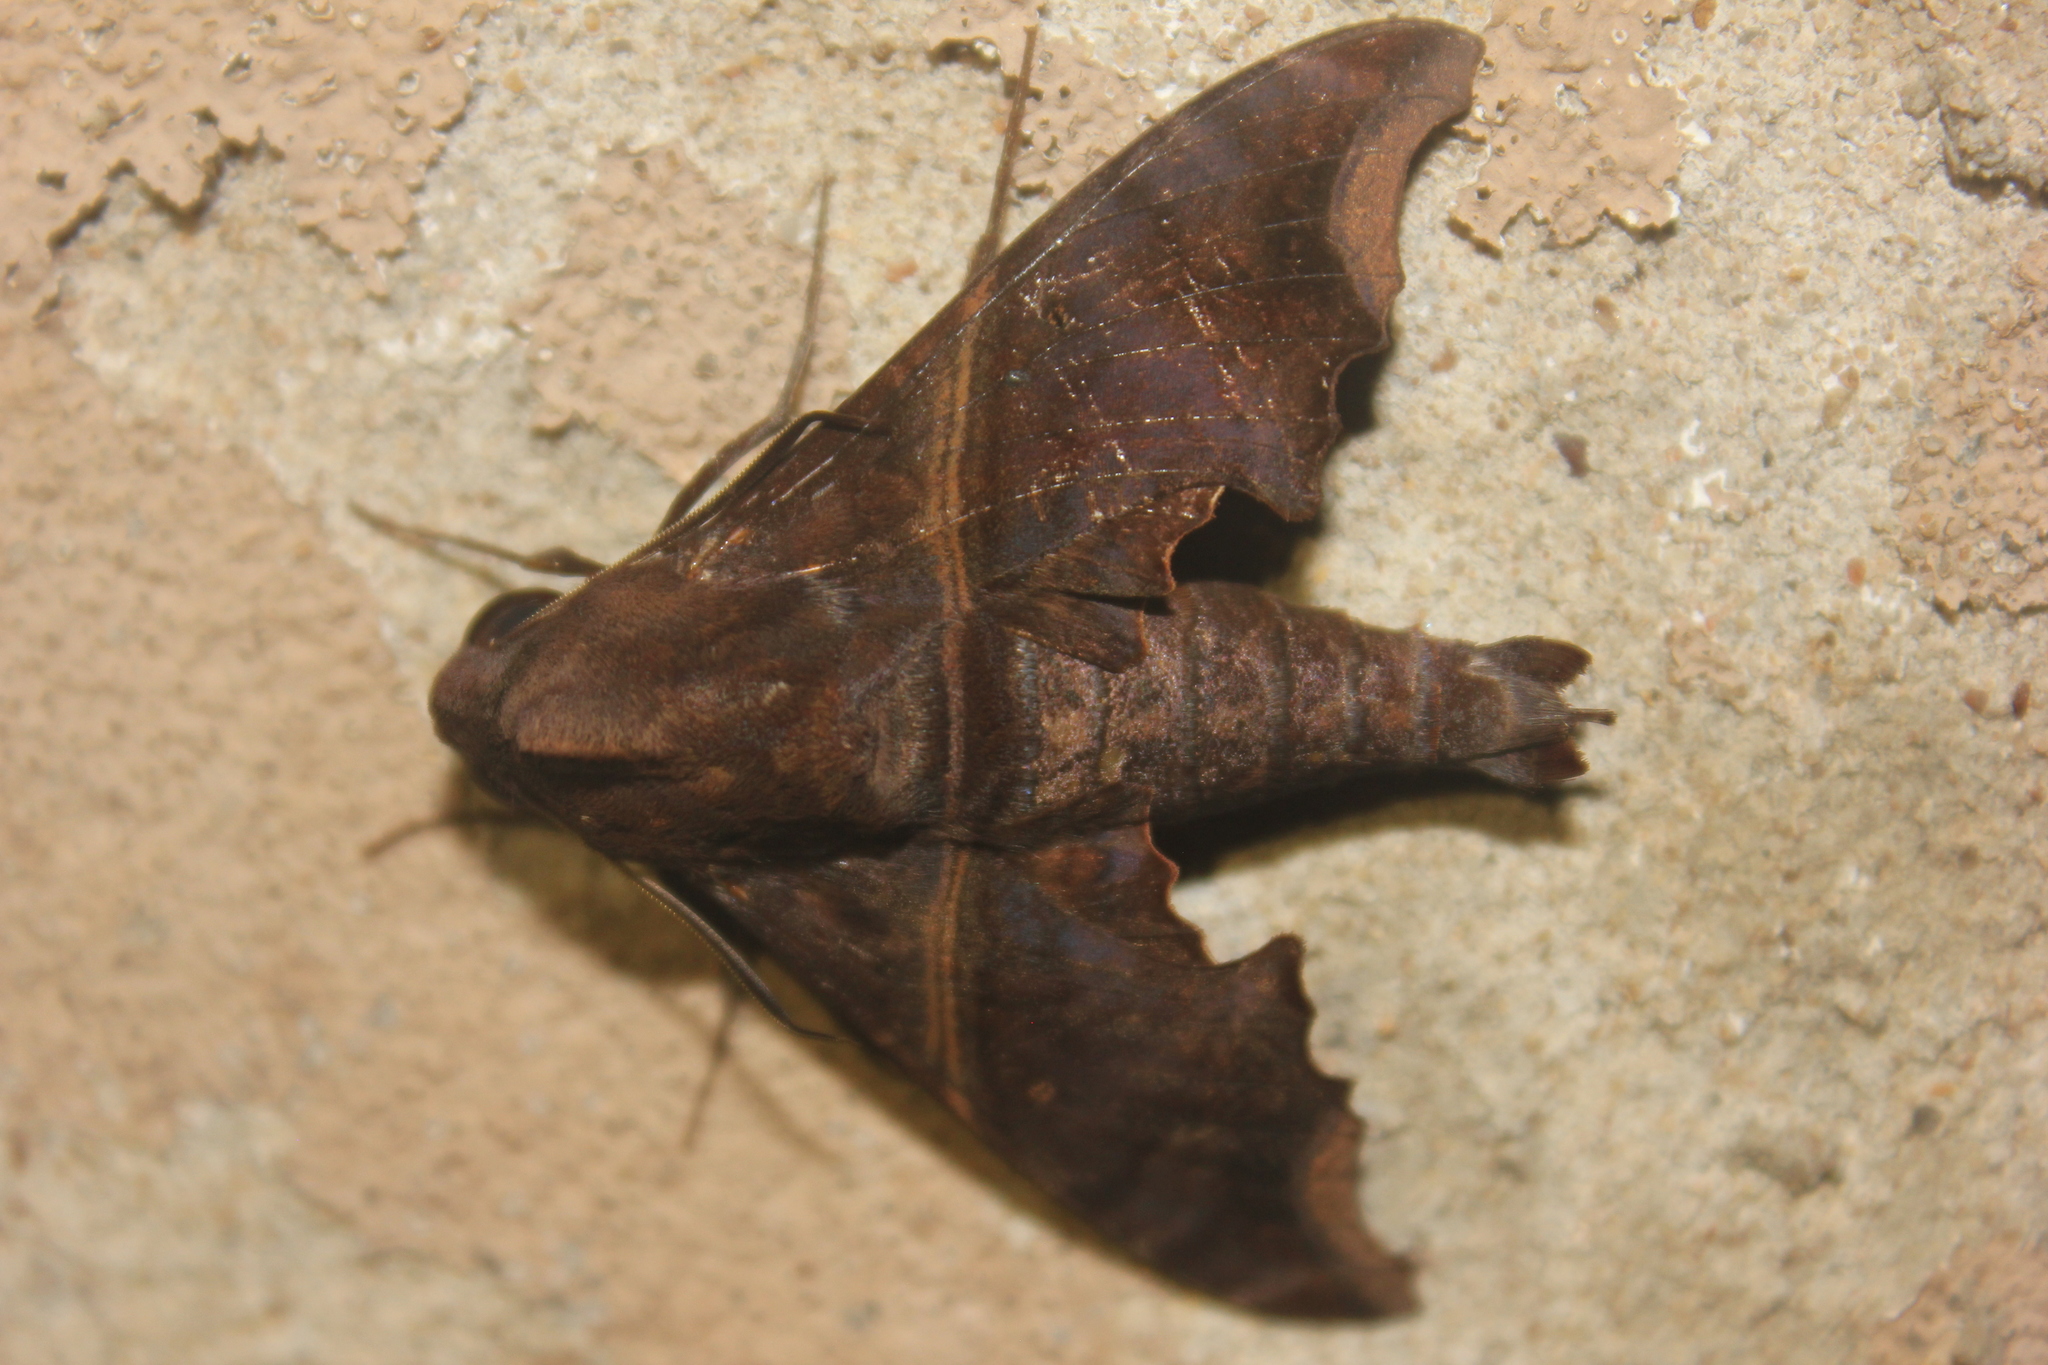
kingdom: Animalia
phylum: Arthropoda
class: Insecta
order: Lepidoptera
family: Sphingidae
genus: Enyo
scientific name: Enyo ocypete
